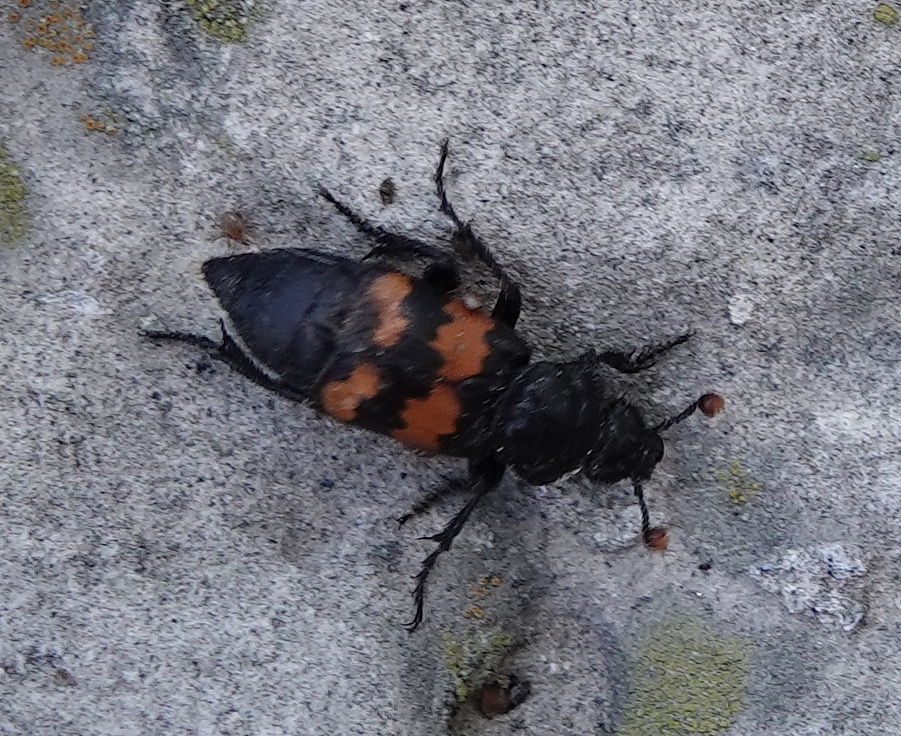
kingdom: Animalia
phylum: Arthropoda
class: Insecta
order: Coleoptera
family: Staphylinidae
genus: Nicrophorus
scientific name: Nicrophorus marginatus
